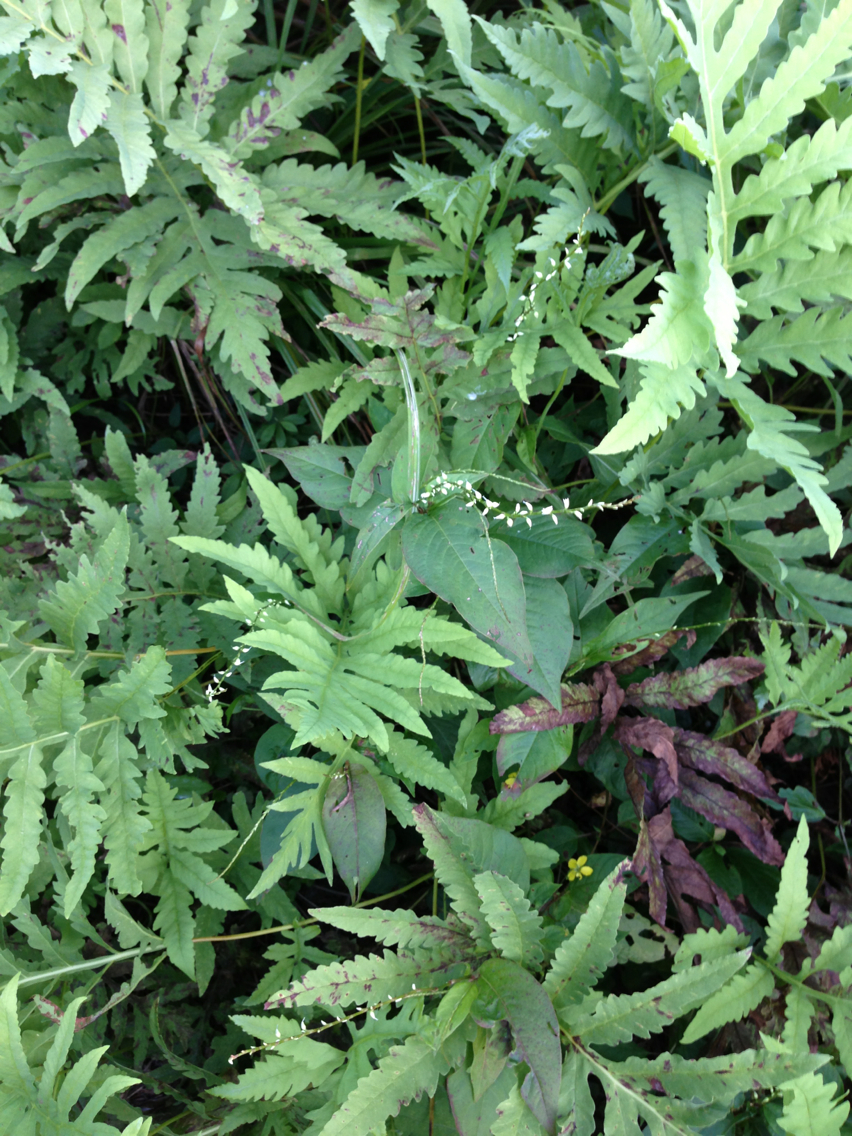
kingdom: Plantae
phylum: Tracheophyta
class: Magnoliopsida
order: Caryophyllales
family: Polygonaceae
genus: Persicaria
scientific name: Persicaria virginiana
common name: Jumpseed
